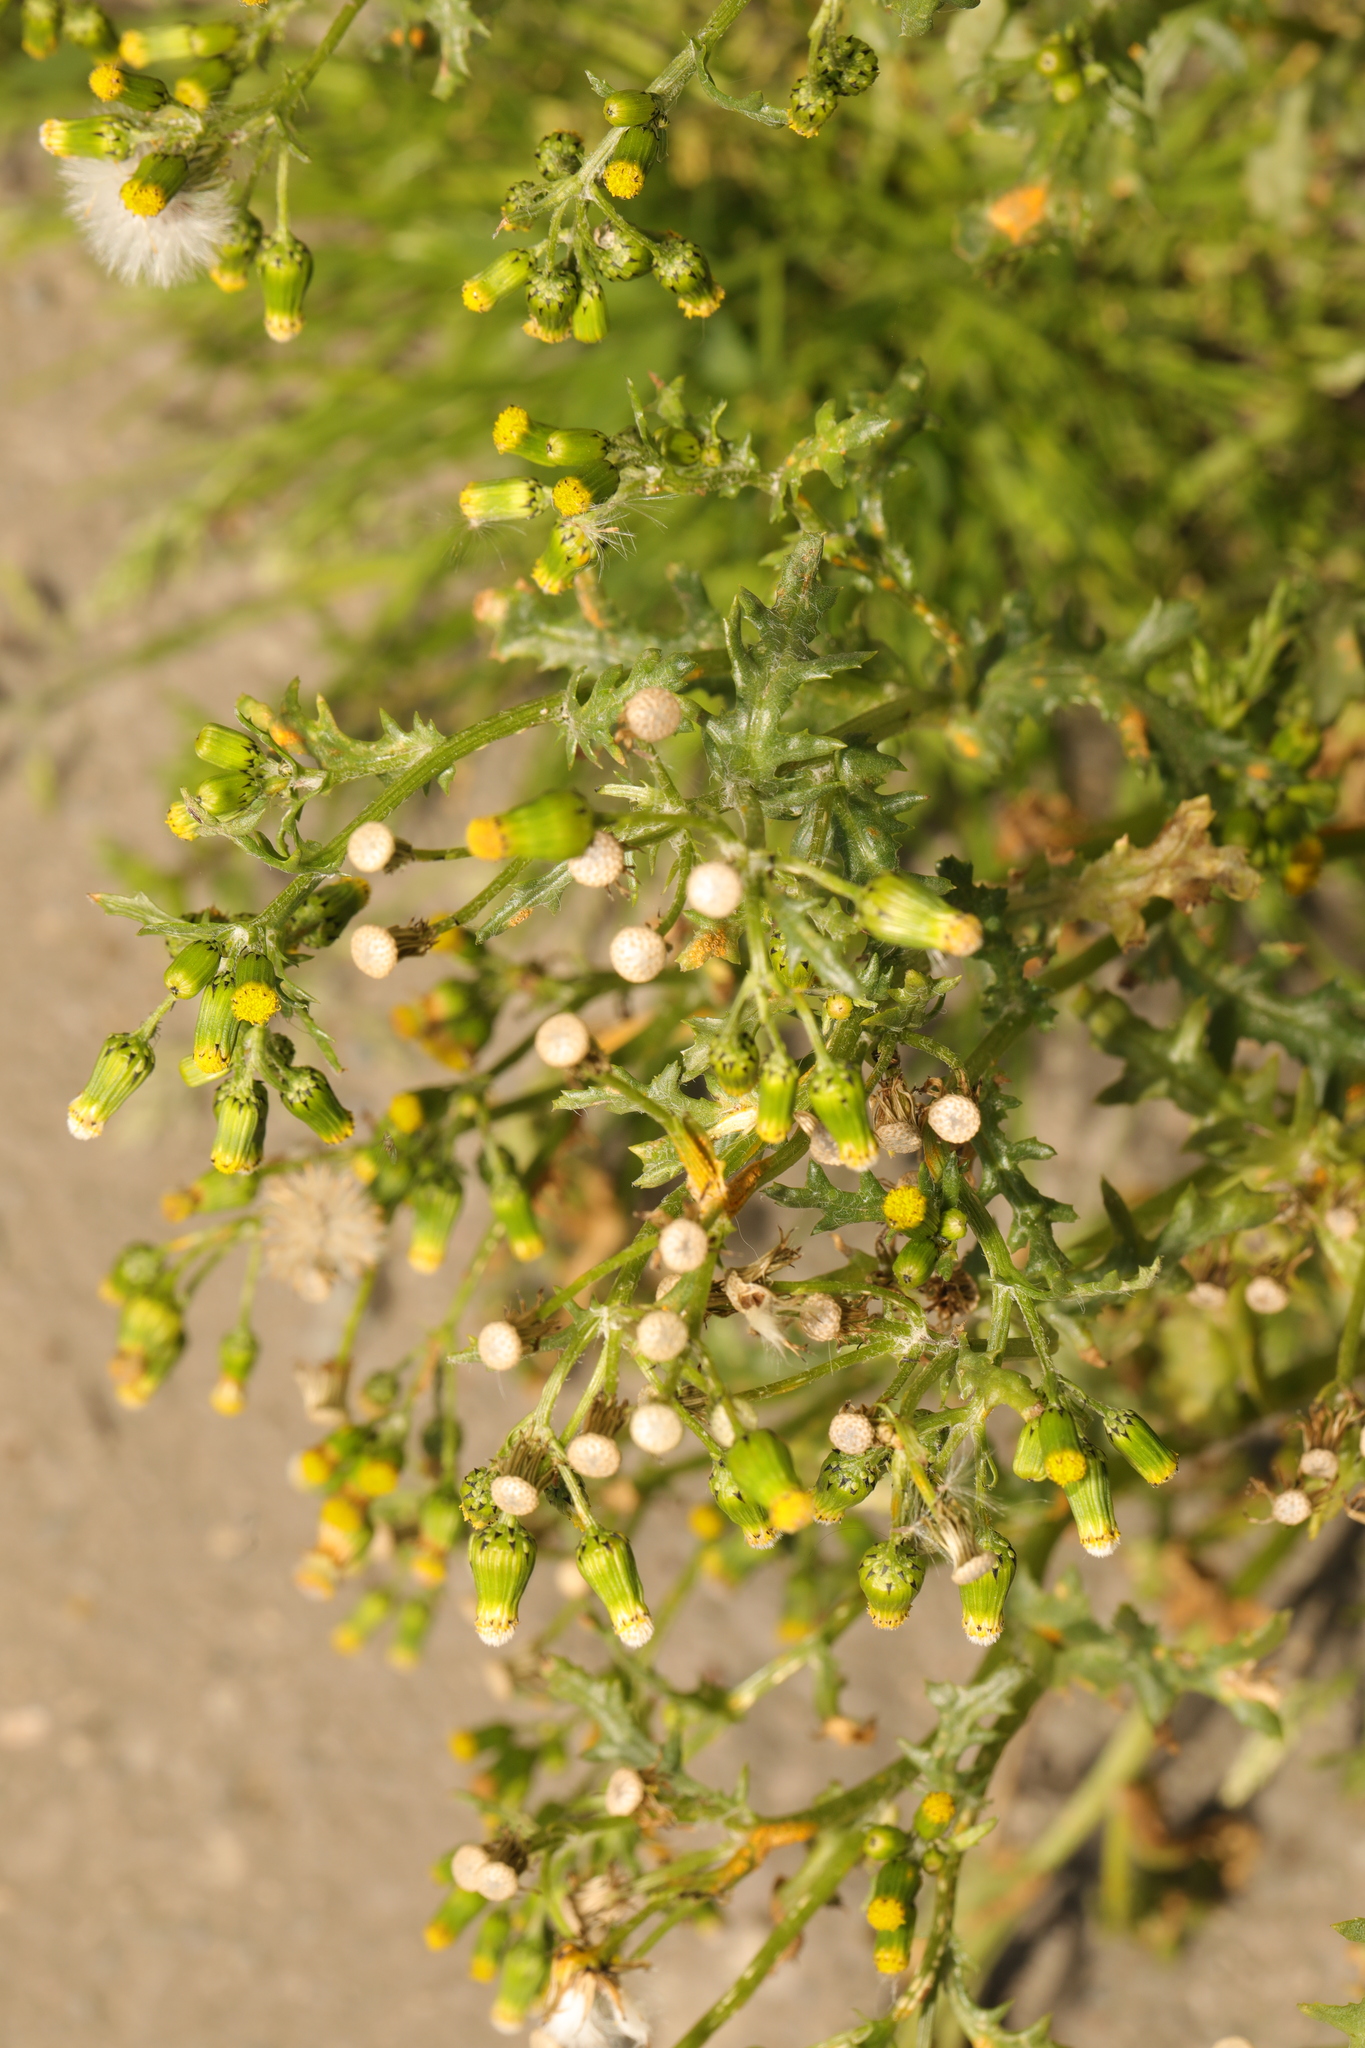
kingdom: Plantae
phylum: Tracheophyta
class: Magnoliopsida
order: Asterales
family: Asteraceae
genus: Senecio
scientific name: Senecio vulgaris
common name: Old-man-in-the-spring
